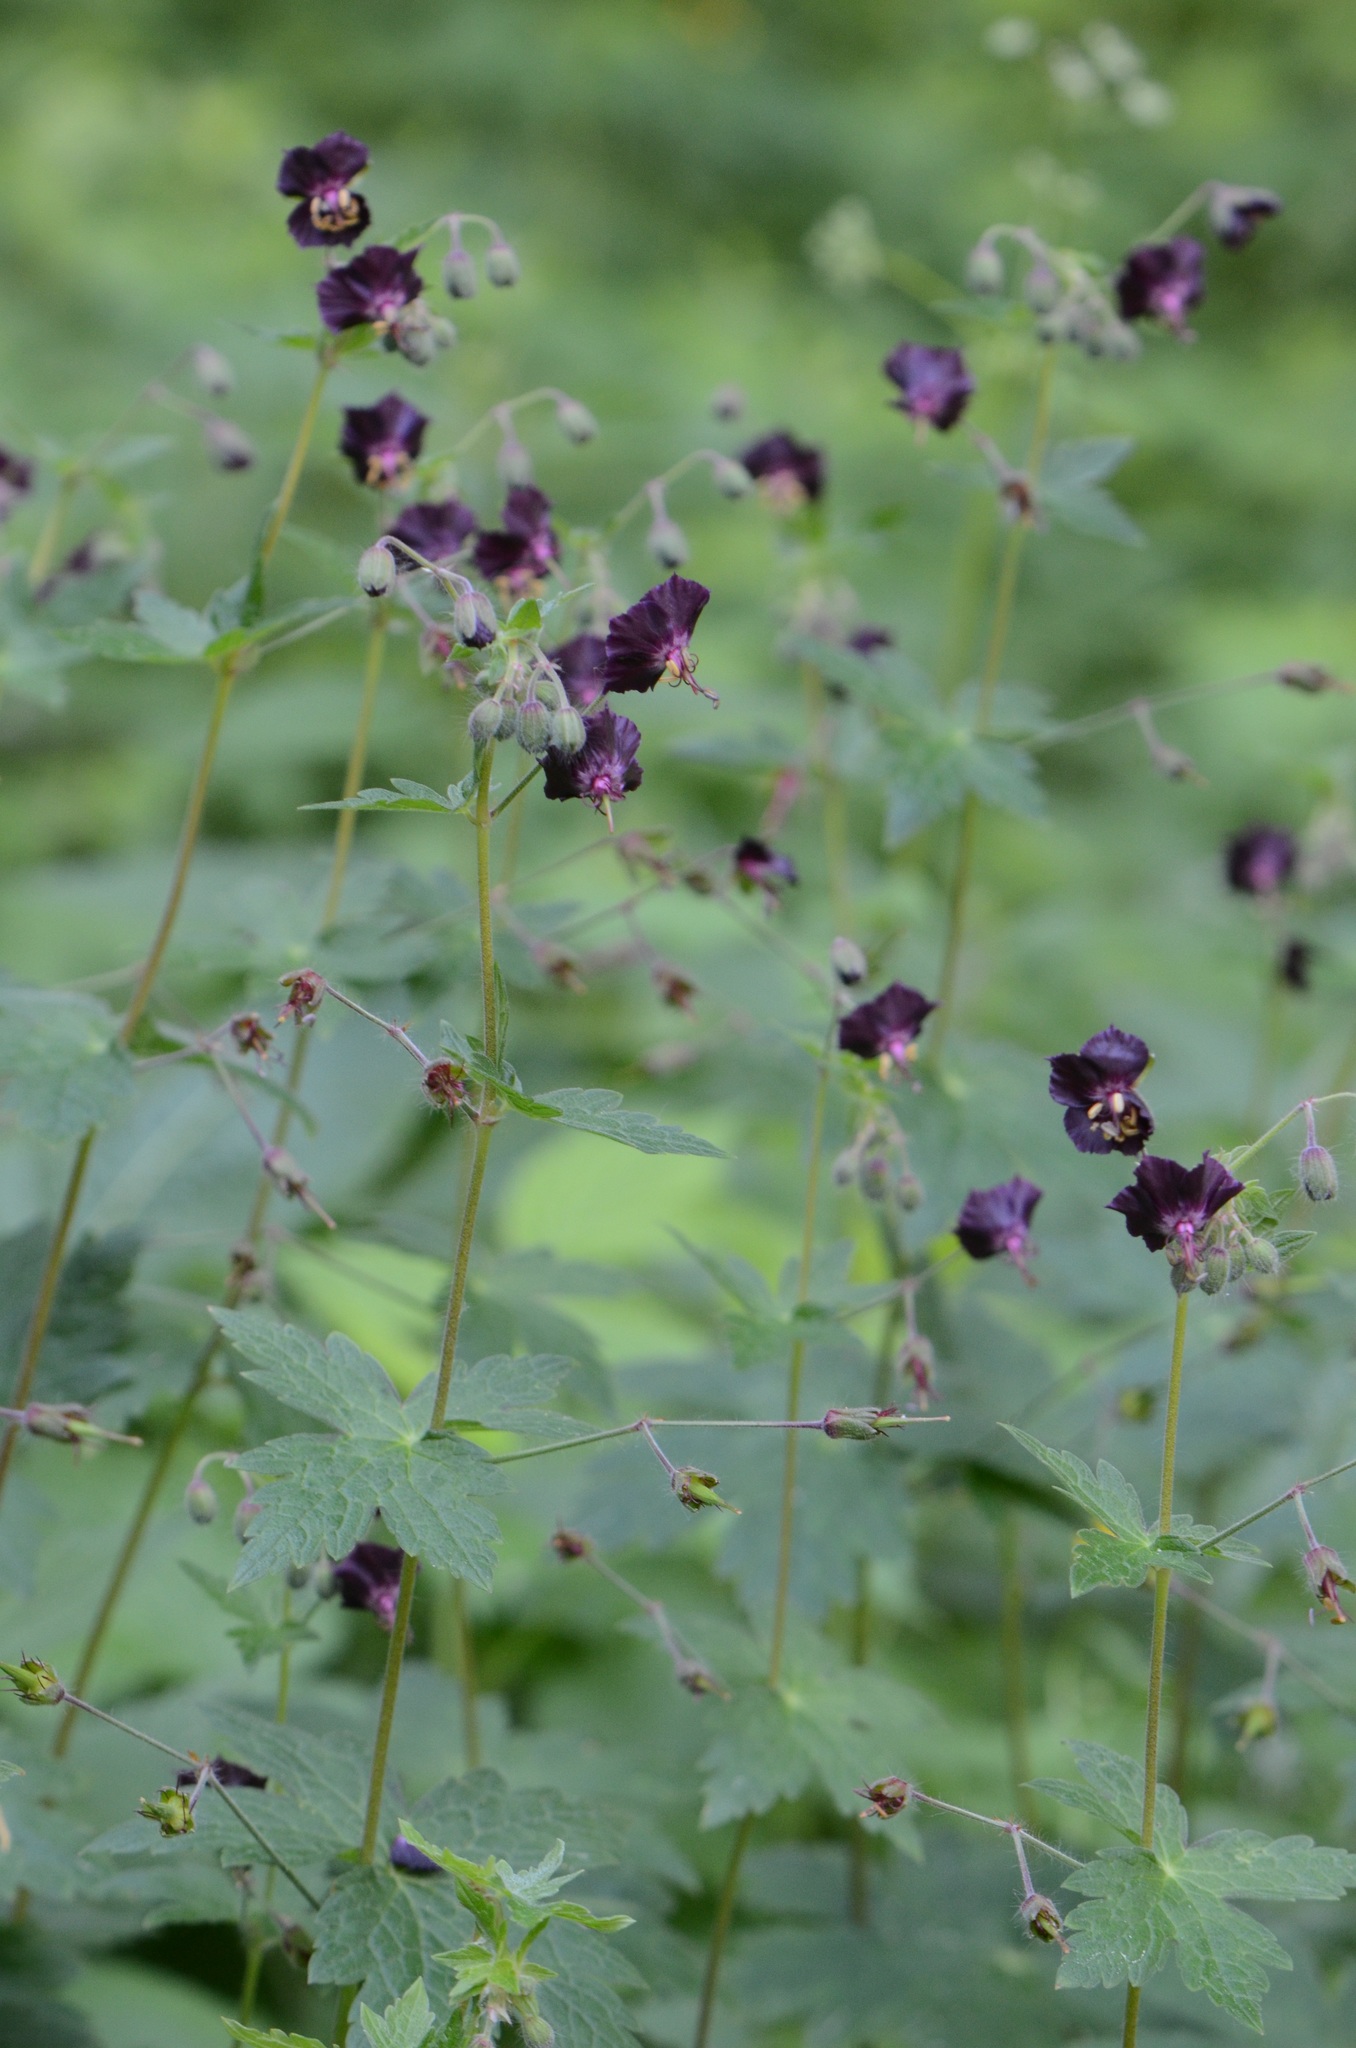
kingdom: Plantae
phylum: Tracheophyta
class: Magnoliopsida
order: Geraniales
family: Geraniaceae
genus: Geranium
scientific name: Geranium phaeum
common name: Dusky crane's-bill
